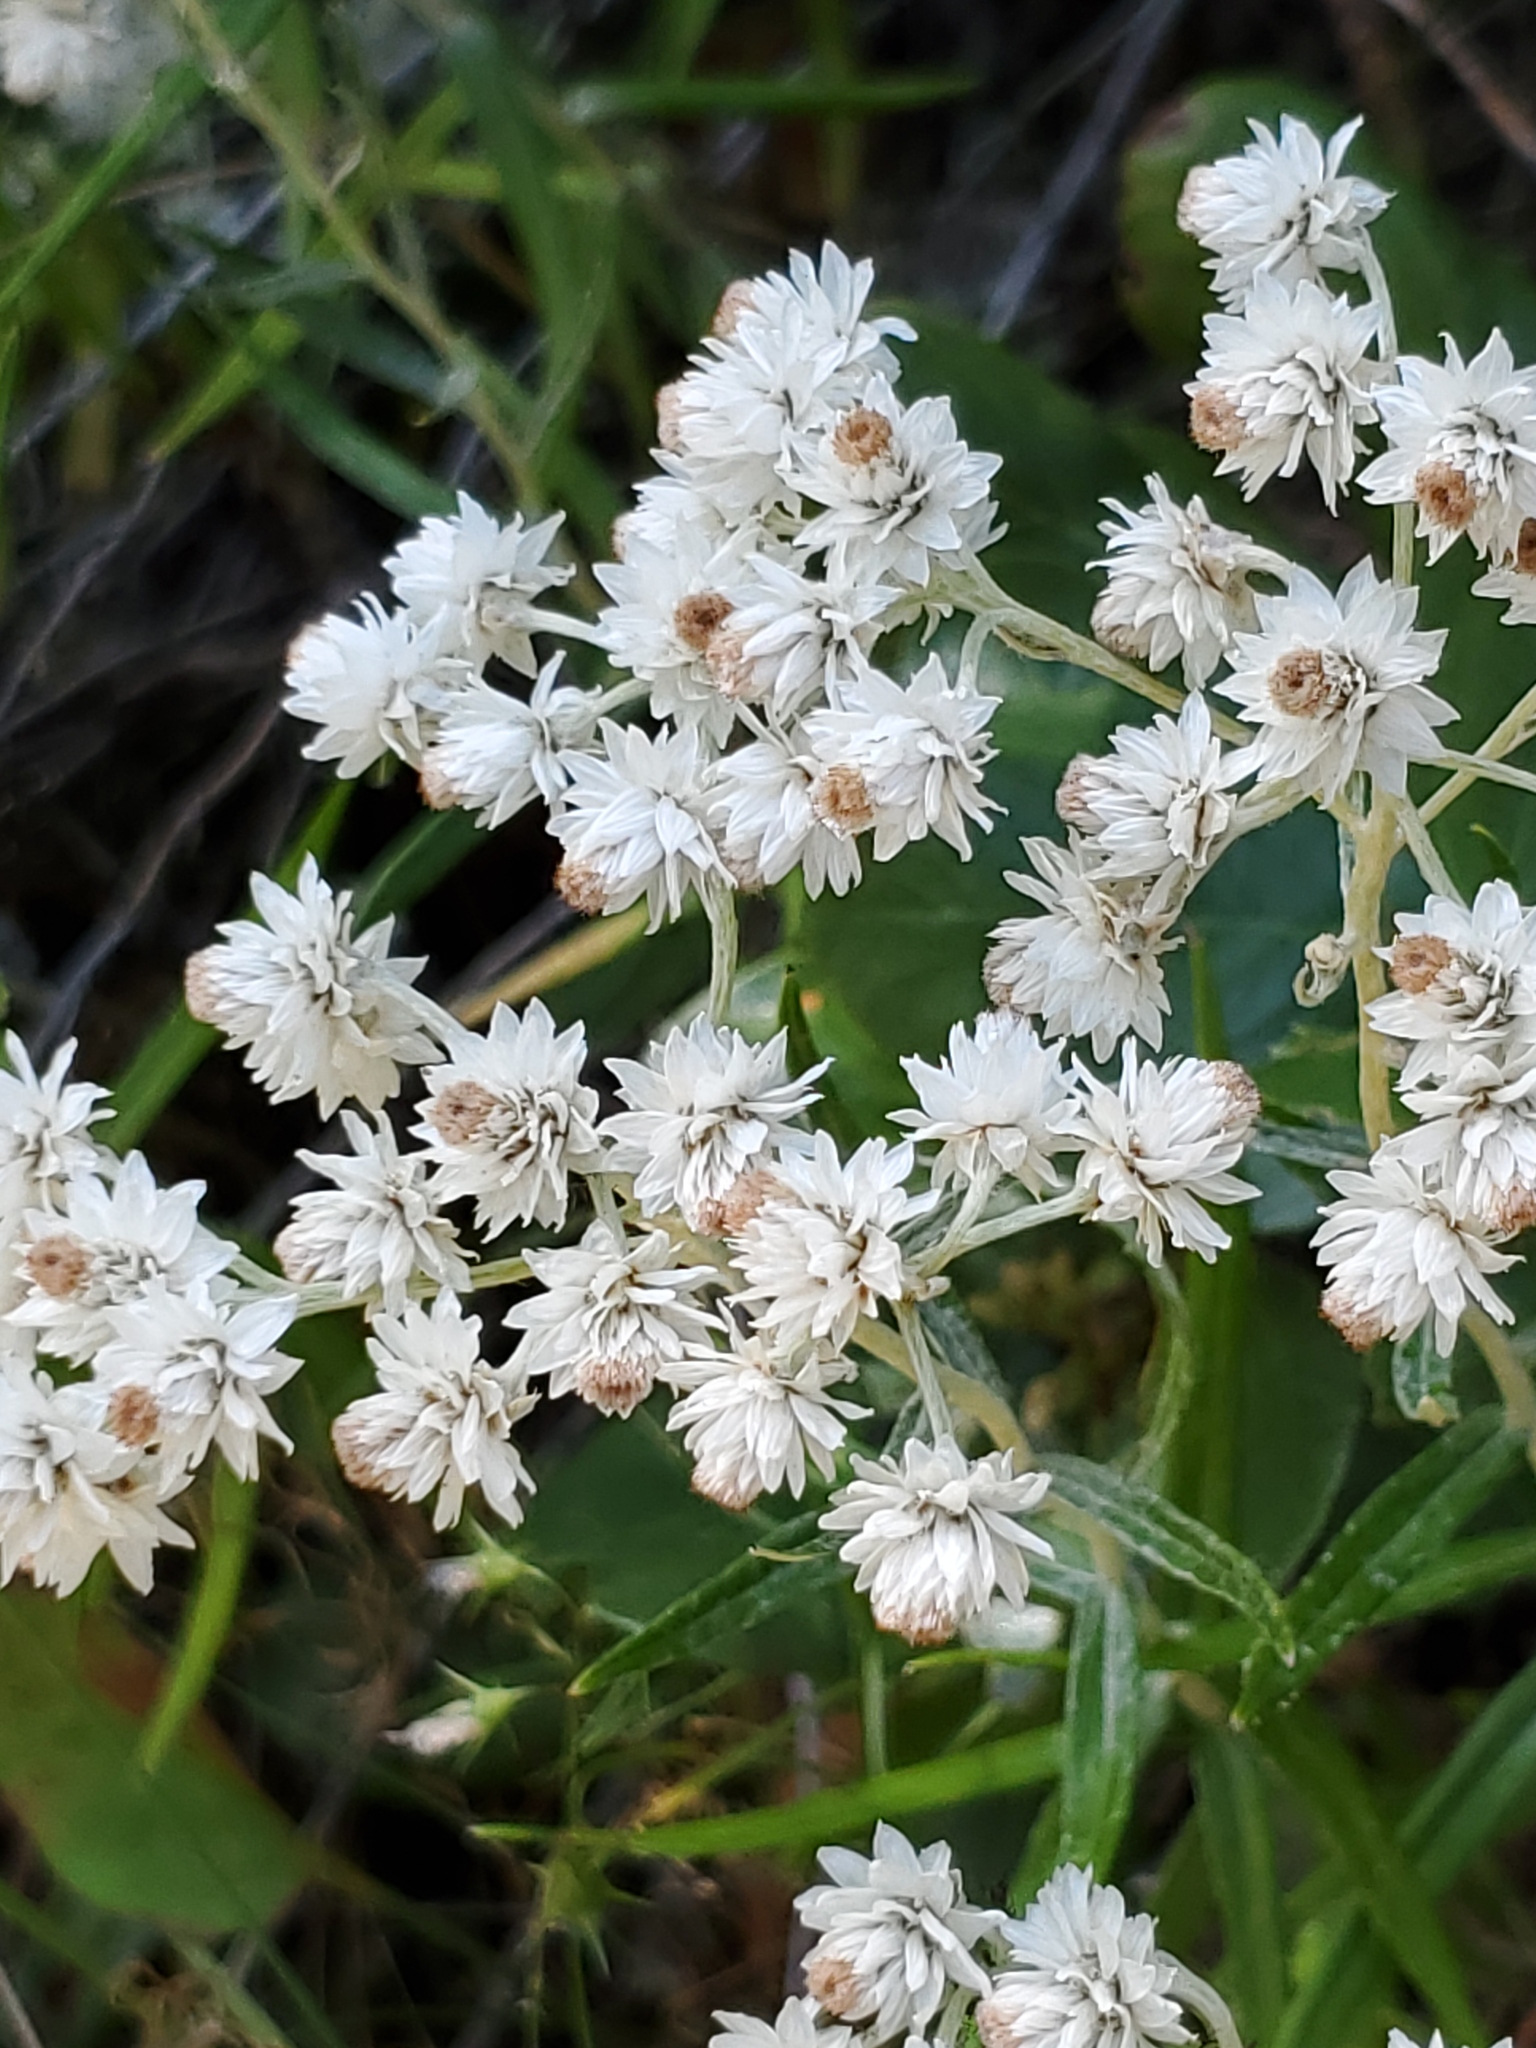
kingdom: Plantae
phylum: Tracheophyta
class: Magnoliopsida
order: Asterales
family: Asteraceae
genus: Anaphalis
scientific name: Anaphalis margaritacea
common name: Pearly everlasting
